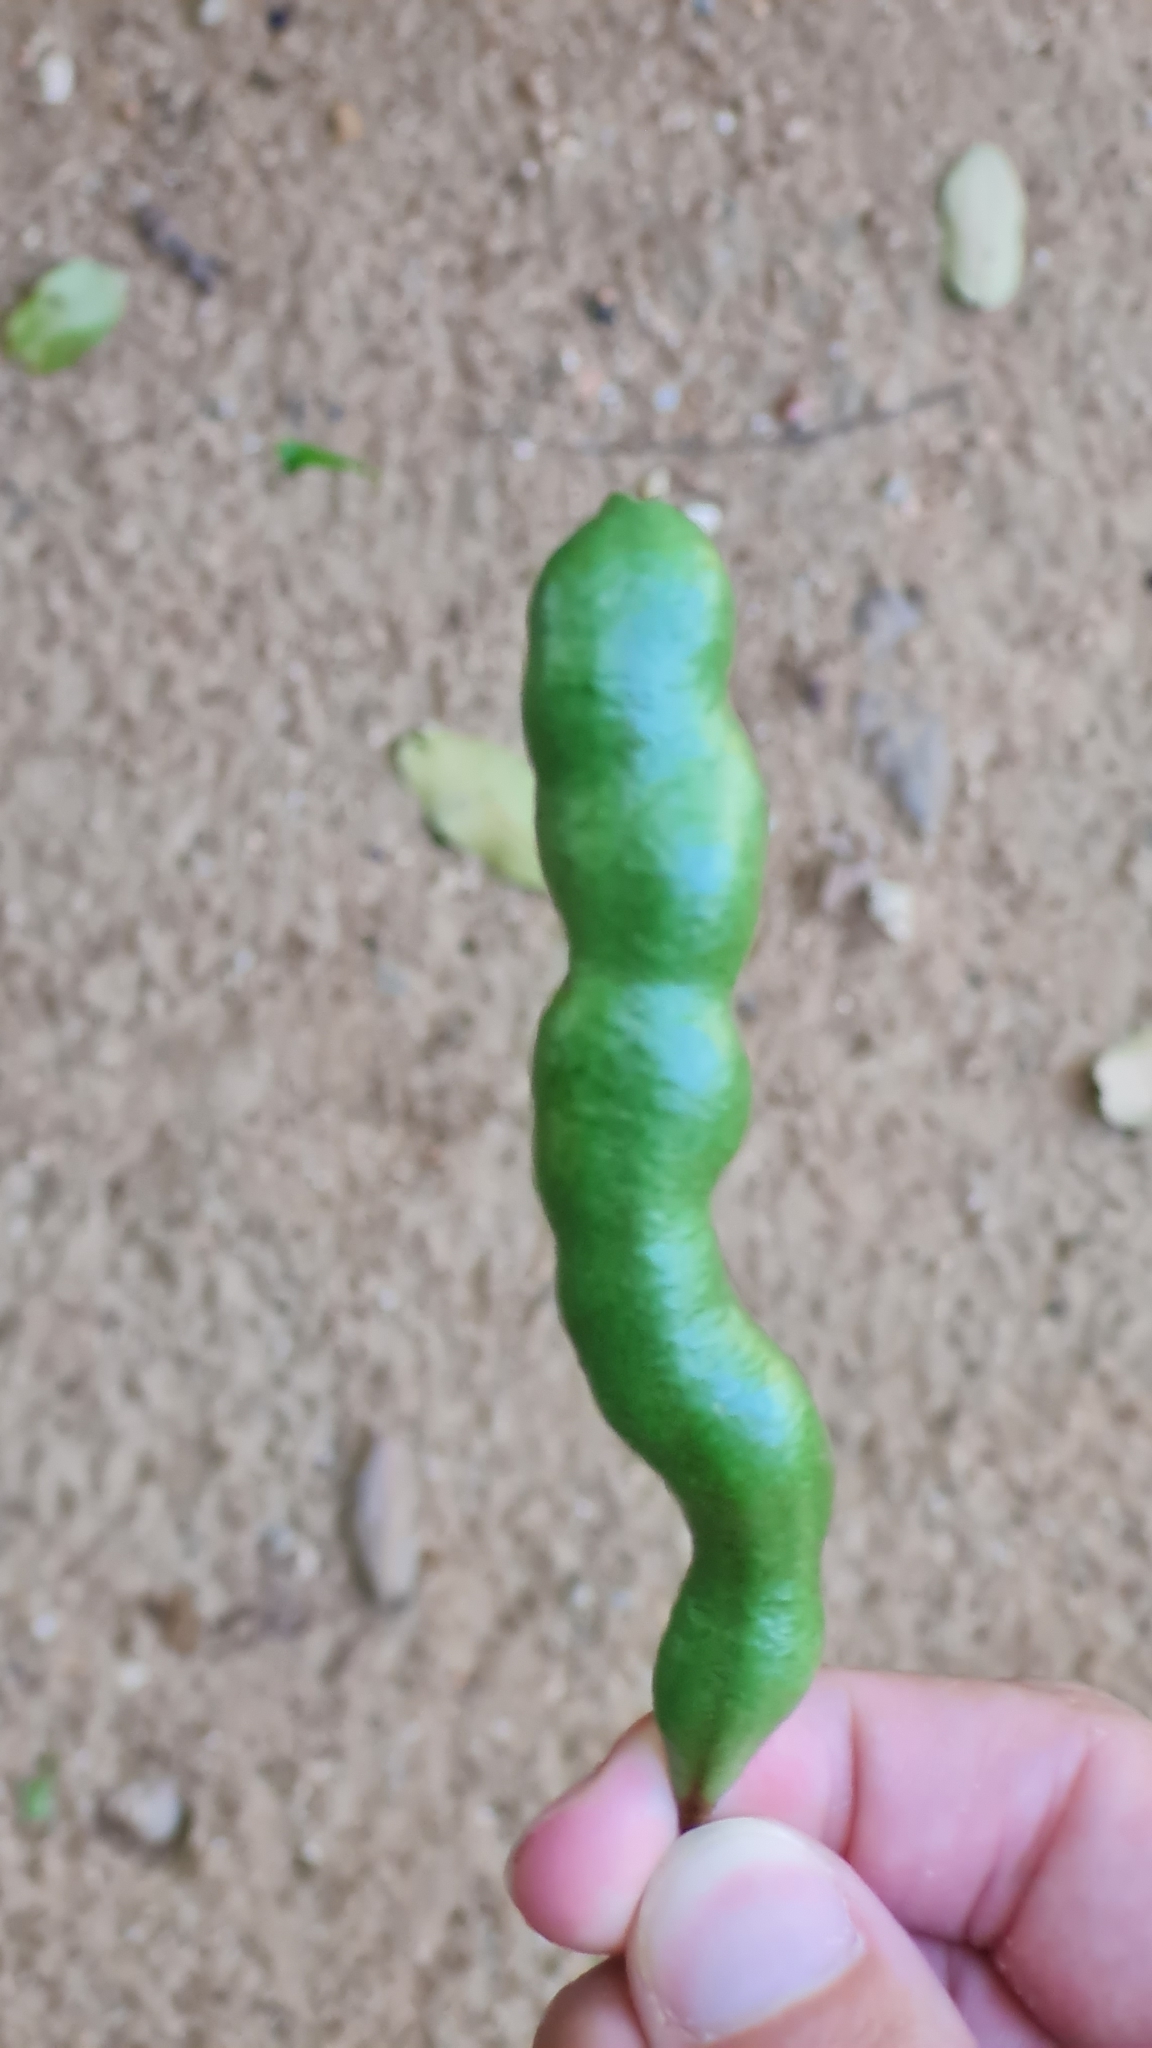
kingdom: Plantae
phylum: Tracheophyta
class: Magnoliopsida
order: Brassicales
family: Capparaceae
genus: Cynophalla
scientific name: Cynophalla hastata
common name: Broadleaf cape
